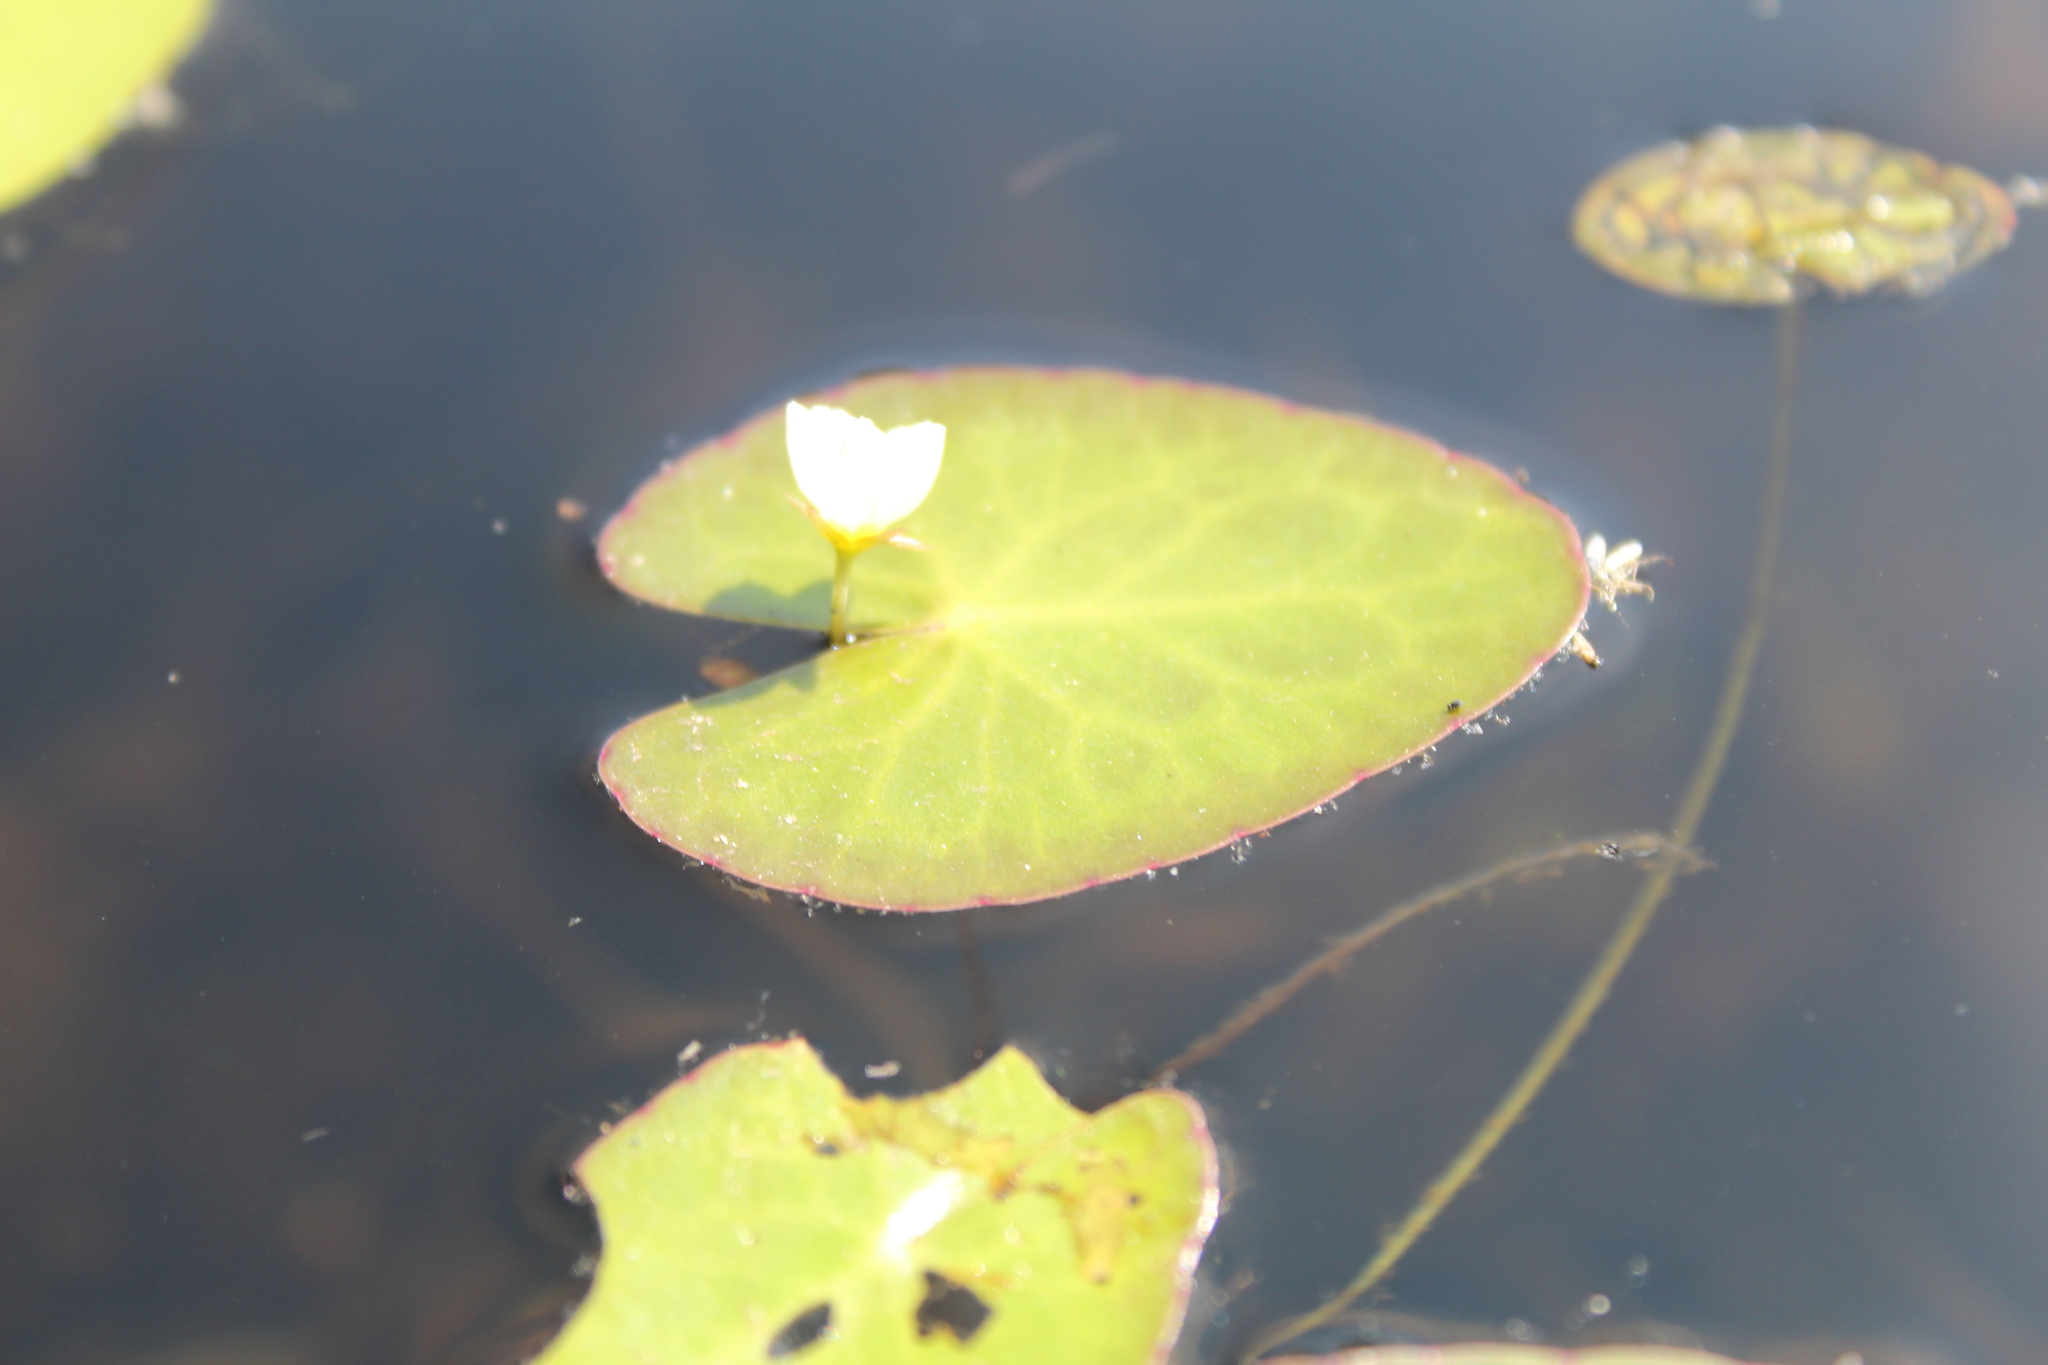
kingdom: Plantae
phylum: Tracheophyta
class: Magnoliopsida
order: Asterales
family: Menyanthaceae
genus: Nymphoides
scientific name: Nymphoides cordata
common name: Eight-angled floatingheart
